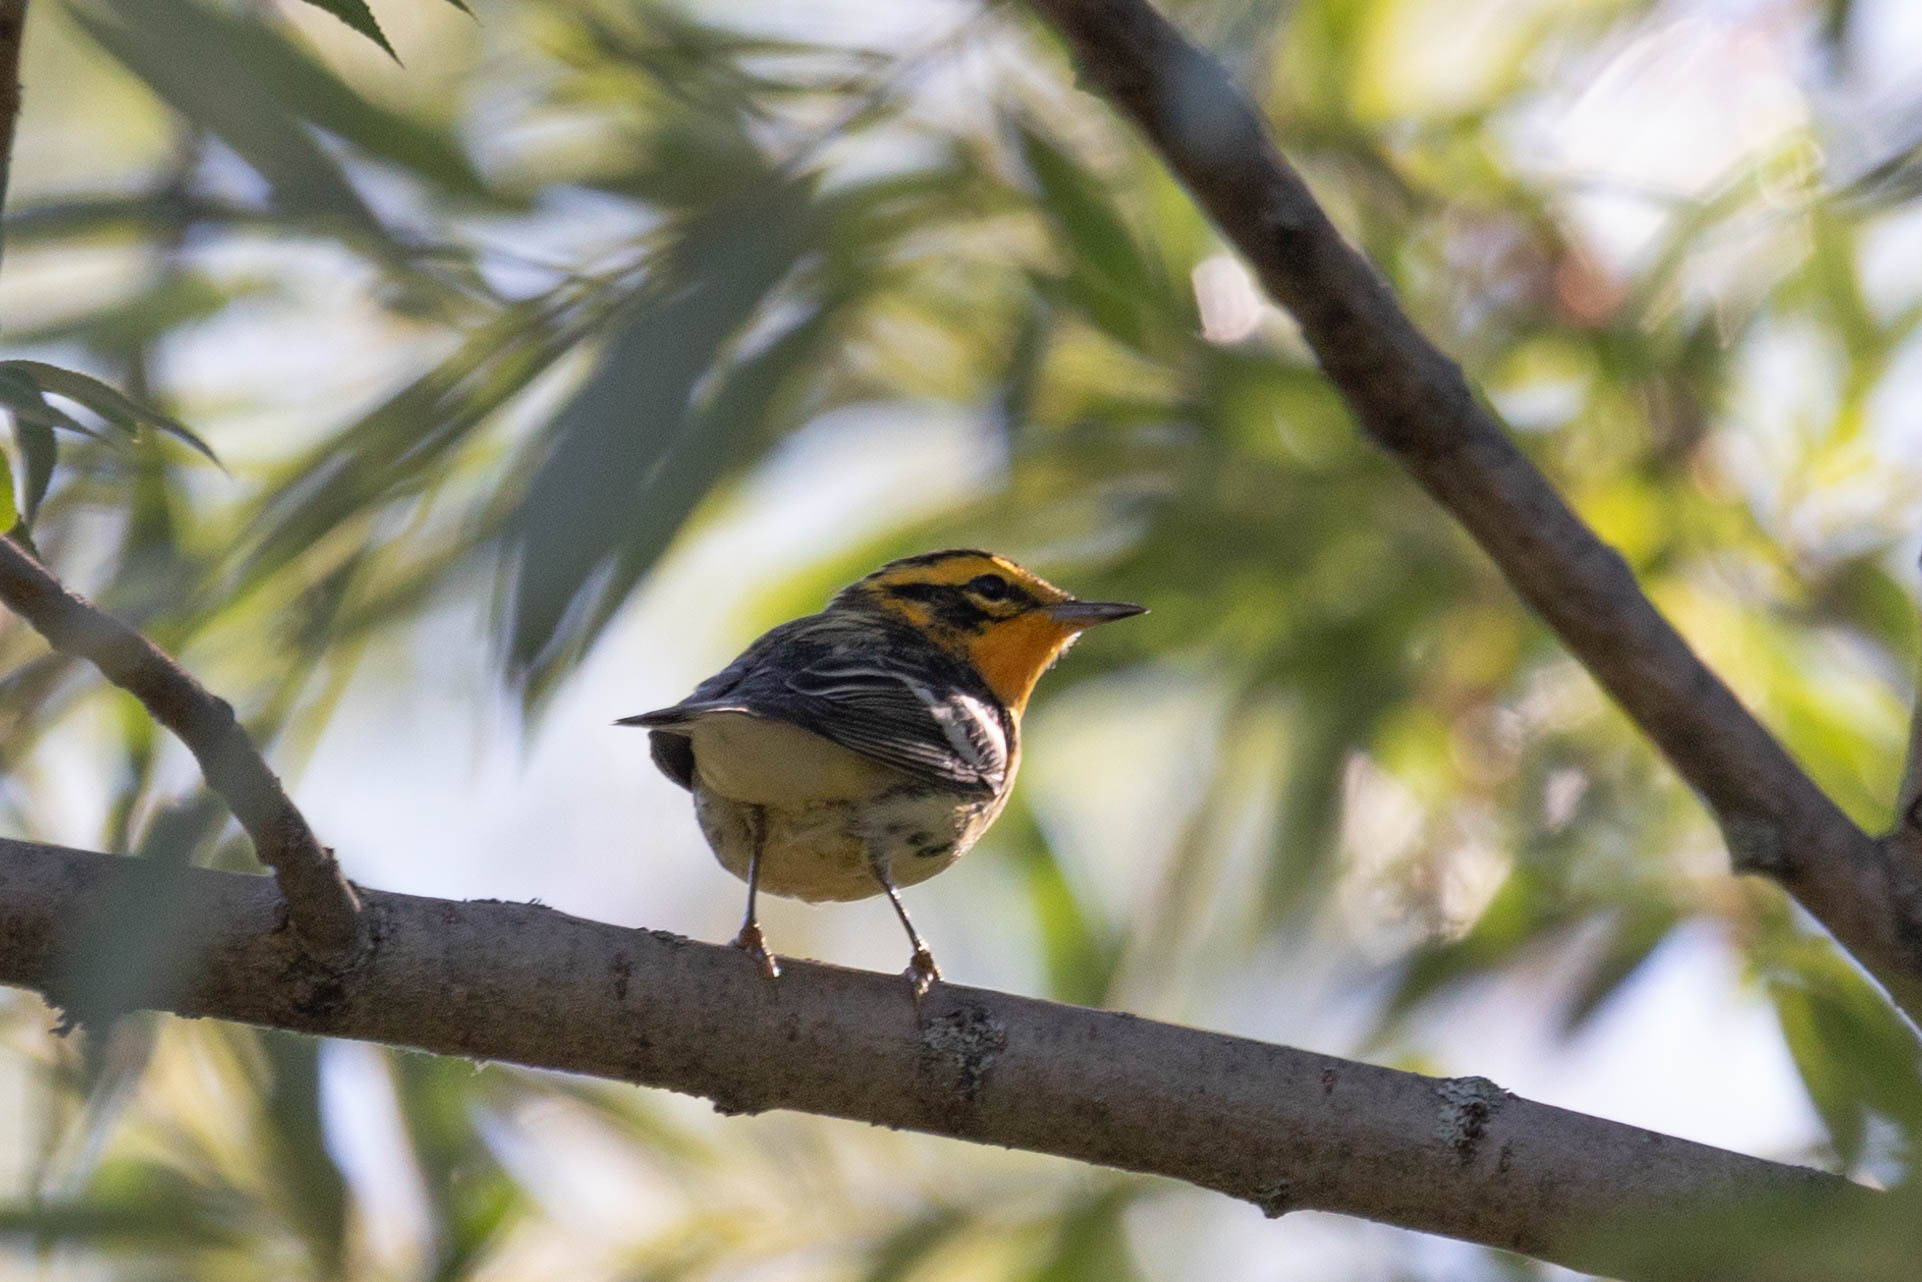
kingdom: Animalia
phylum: Chordata
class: Aves
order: Passeriformes
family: Parulidae
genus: Setophaga
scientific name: Setophaga fusca
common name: Blackburnian warbler
